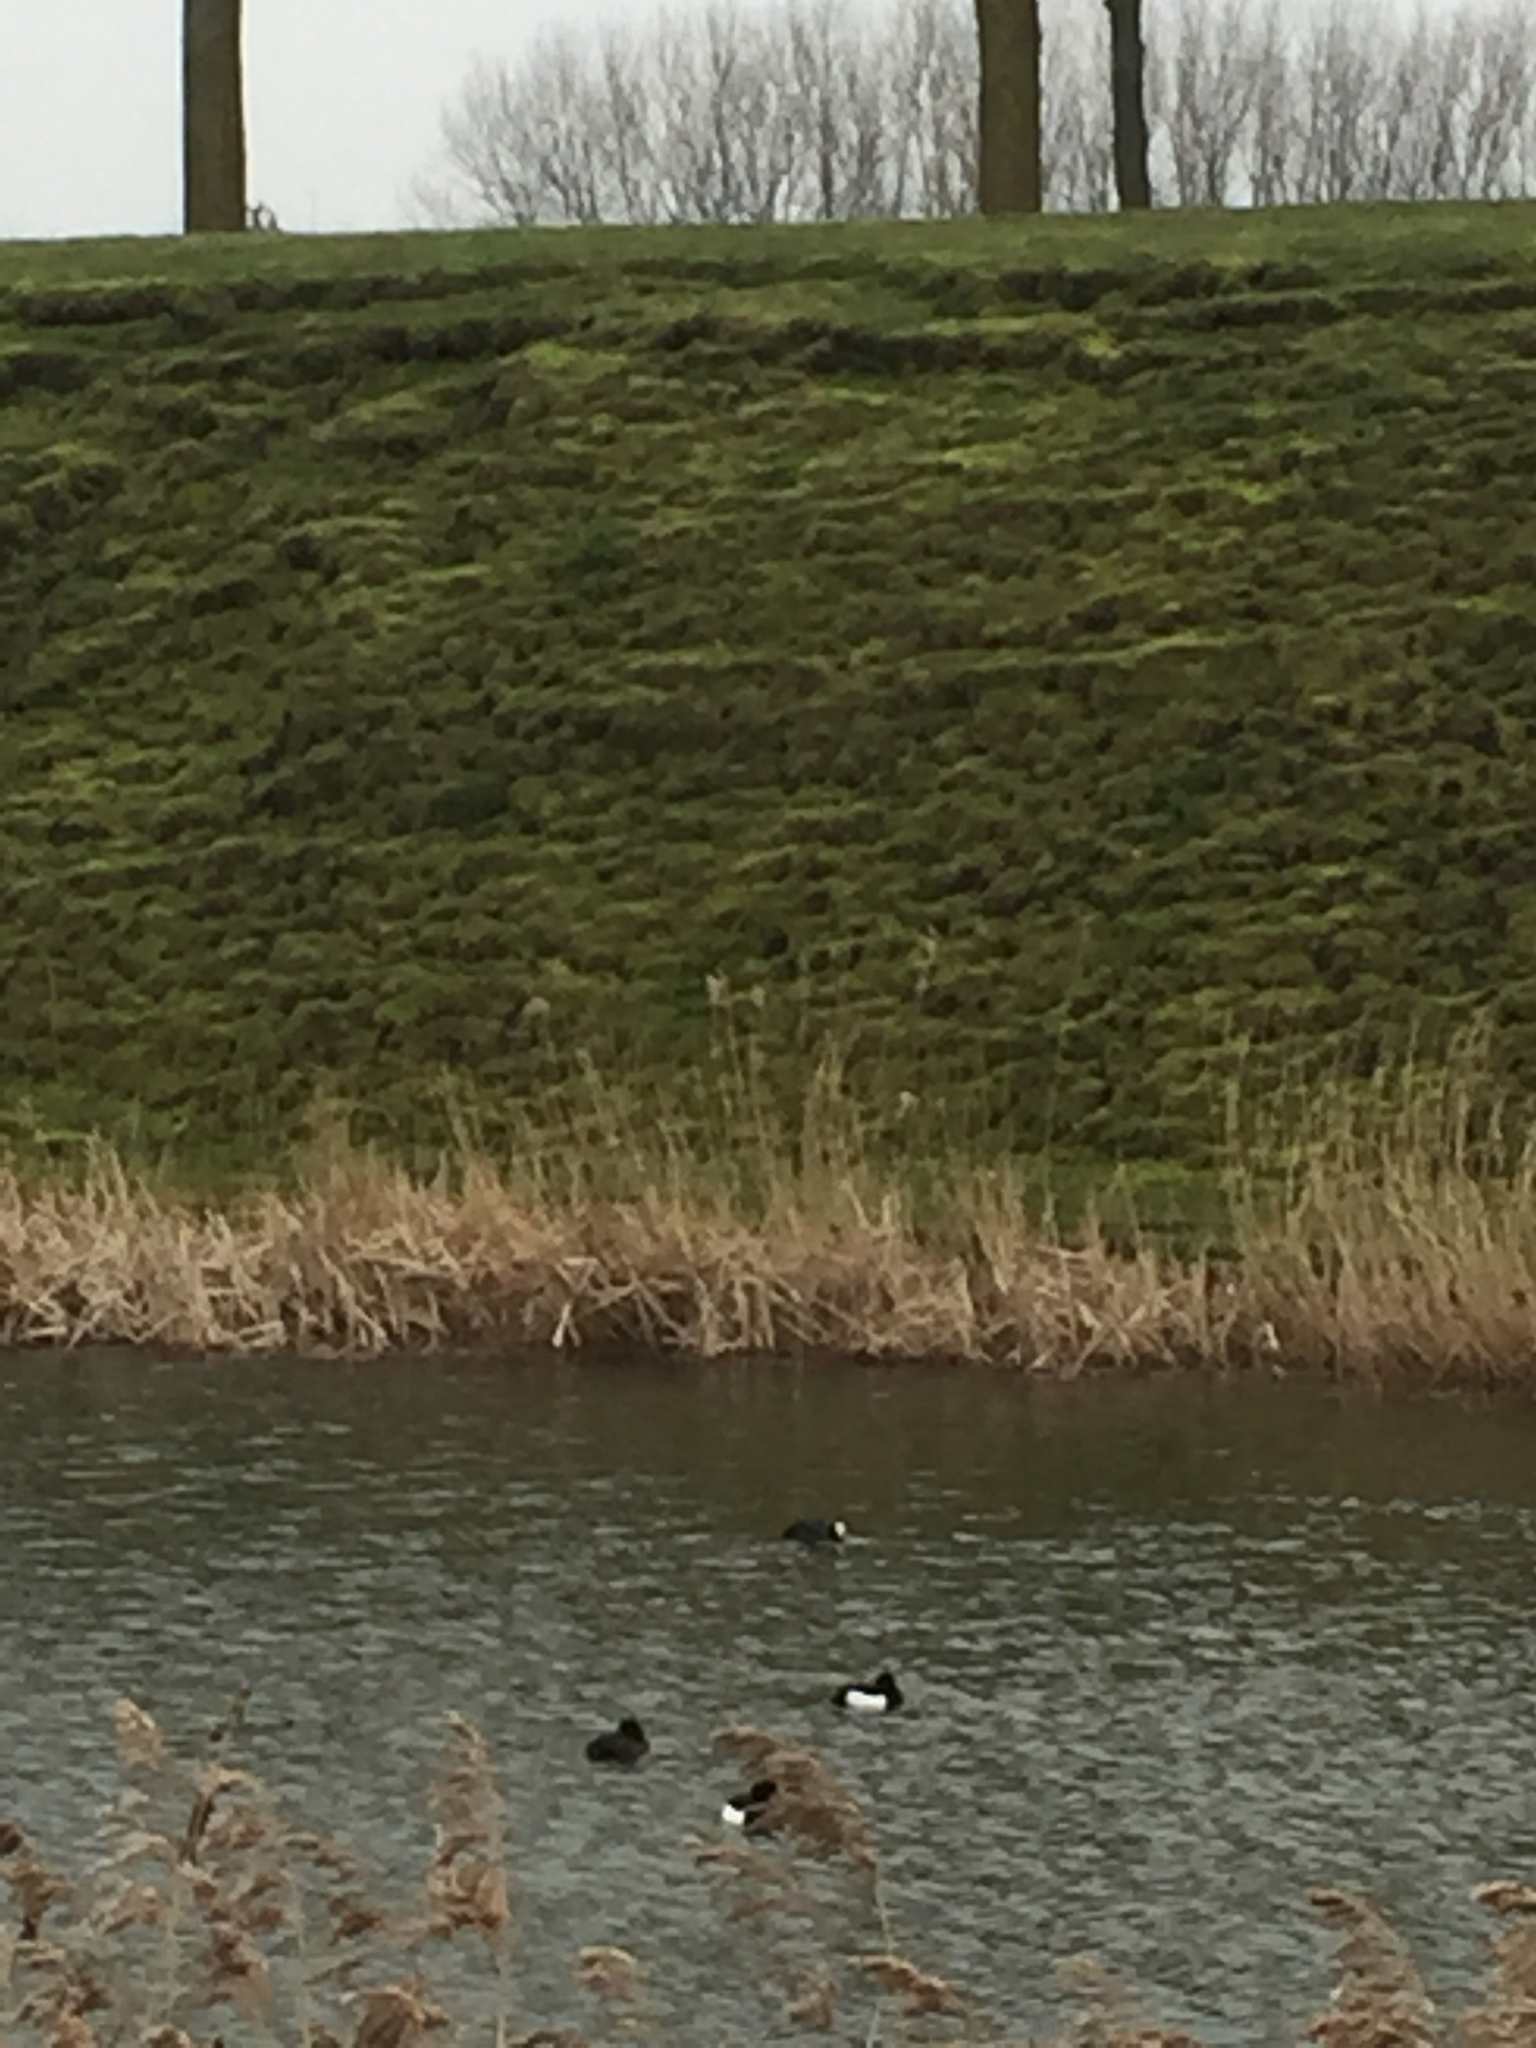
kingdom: Animalia
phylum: Chordata
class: Aves
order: Anseriformes
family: Anatidae
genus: Aythya
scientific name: Aythya fuligula
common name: Tufted duck
